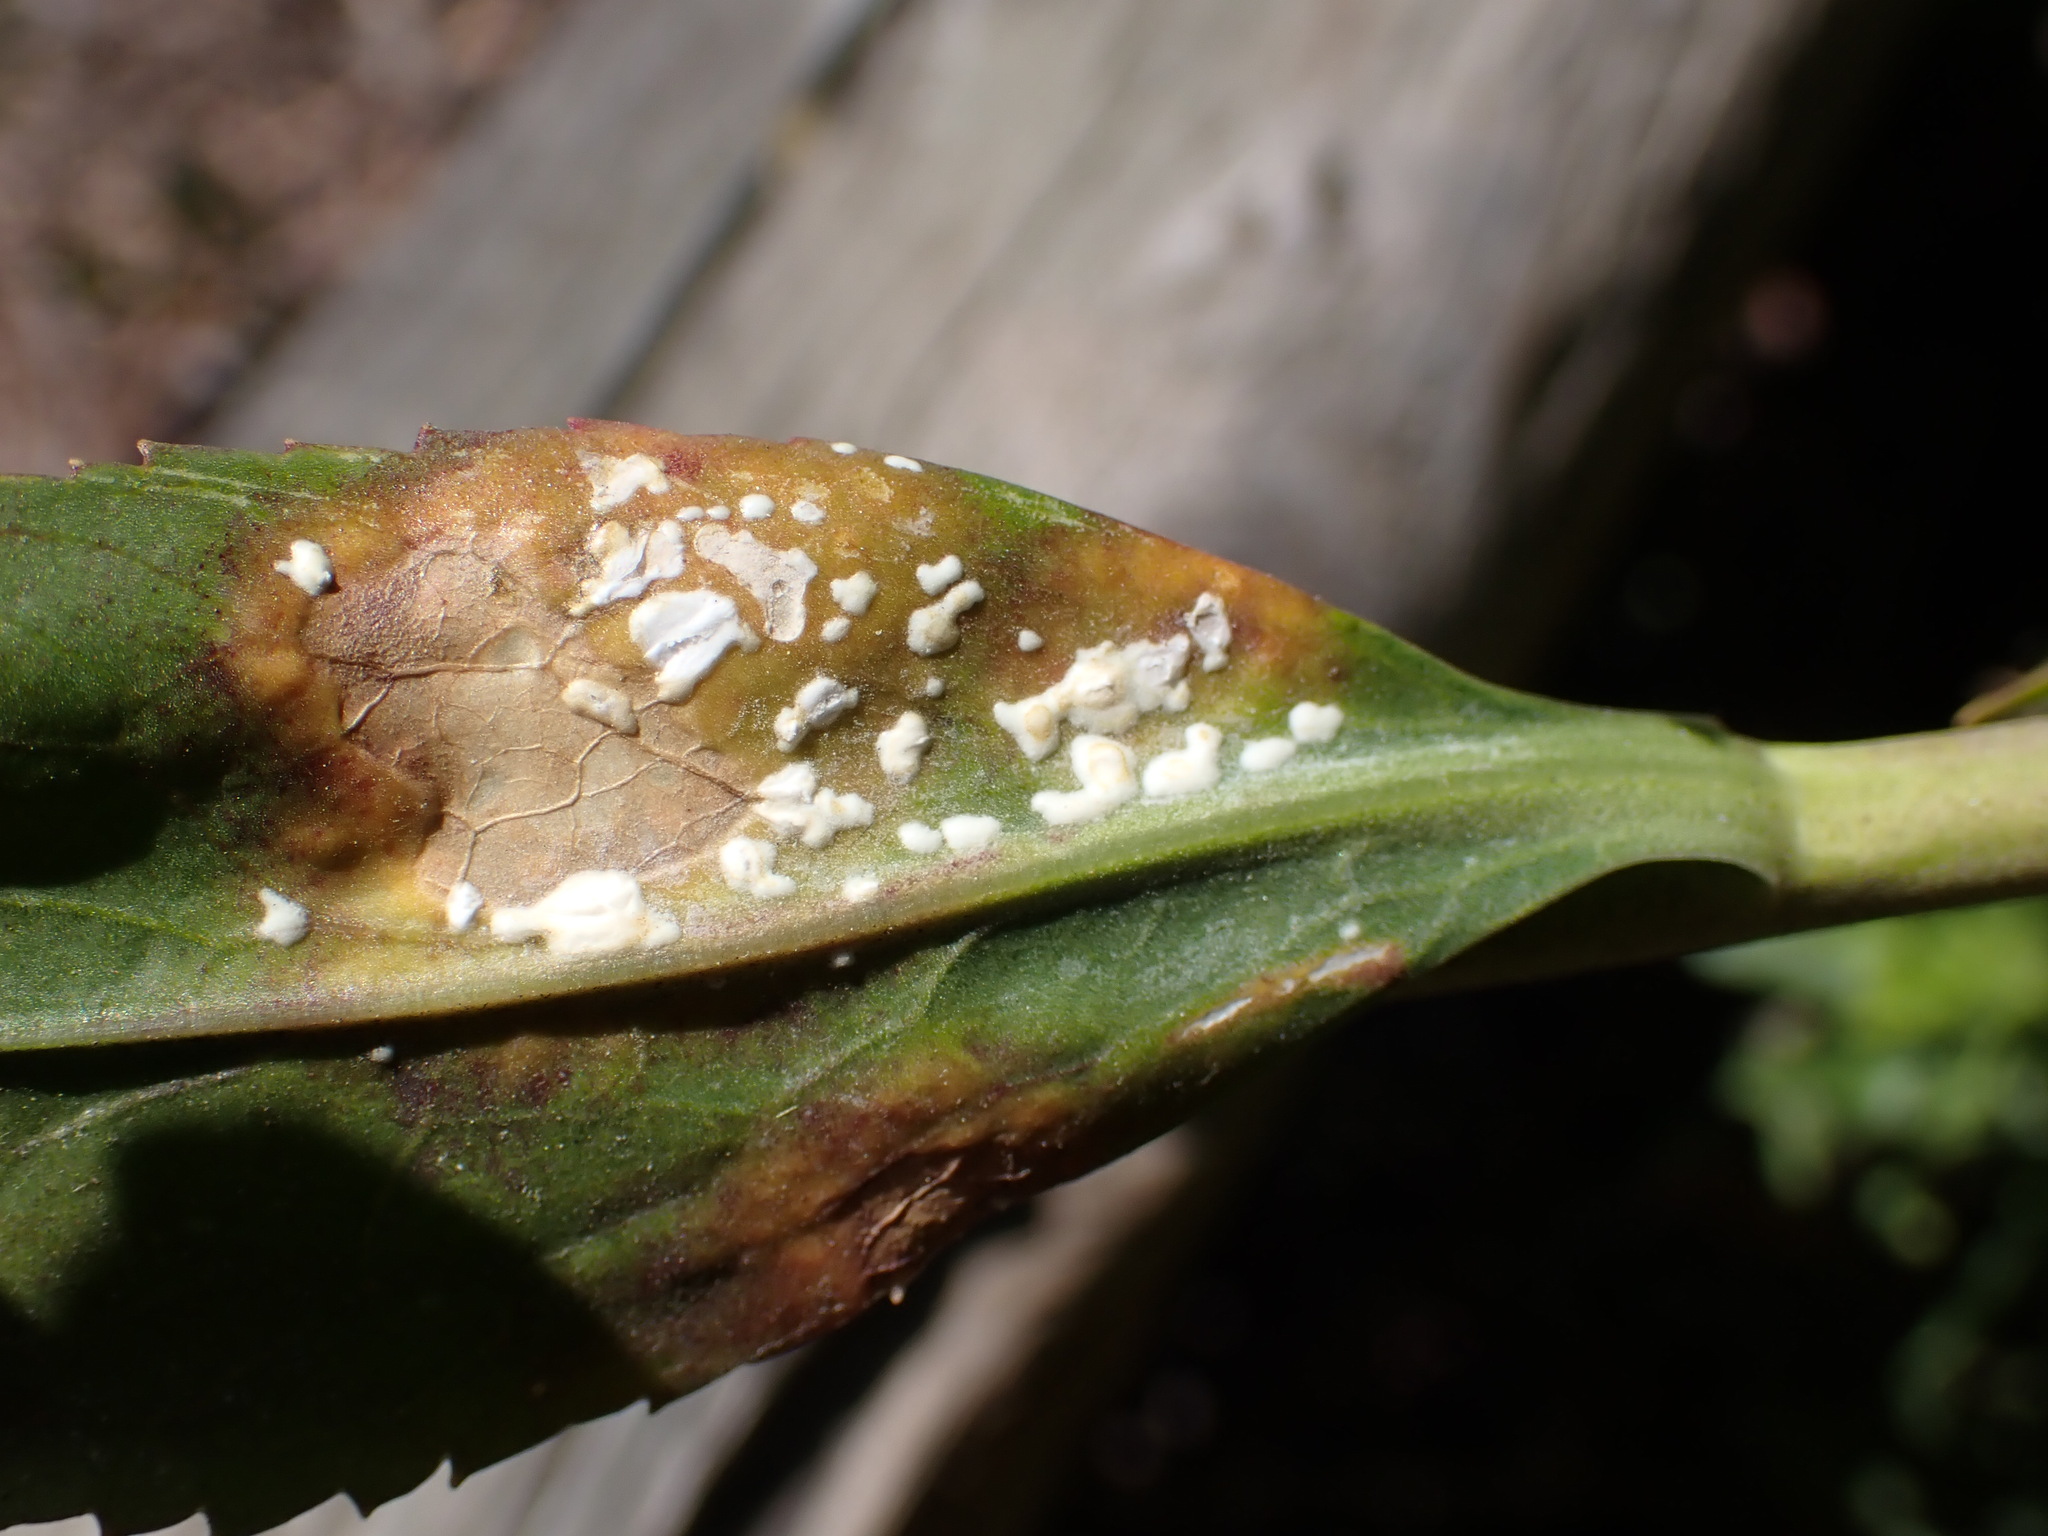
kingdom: Chromista
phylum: Oomycota
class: Peronosporea
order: Albuginales
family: Albuginaceae
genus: Albugo
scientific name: Albugo lepidii
